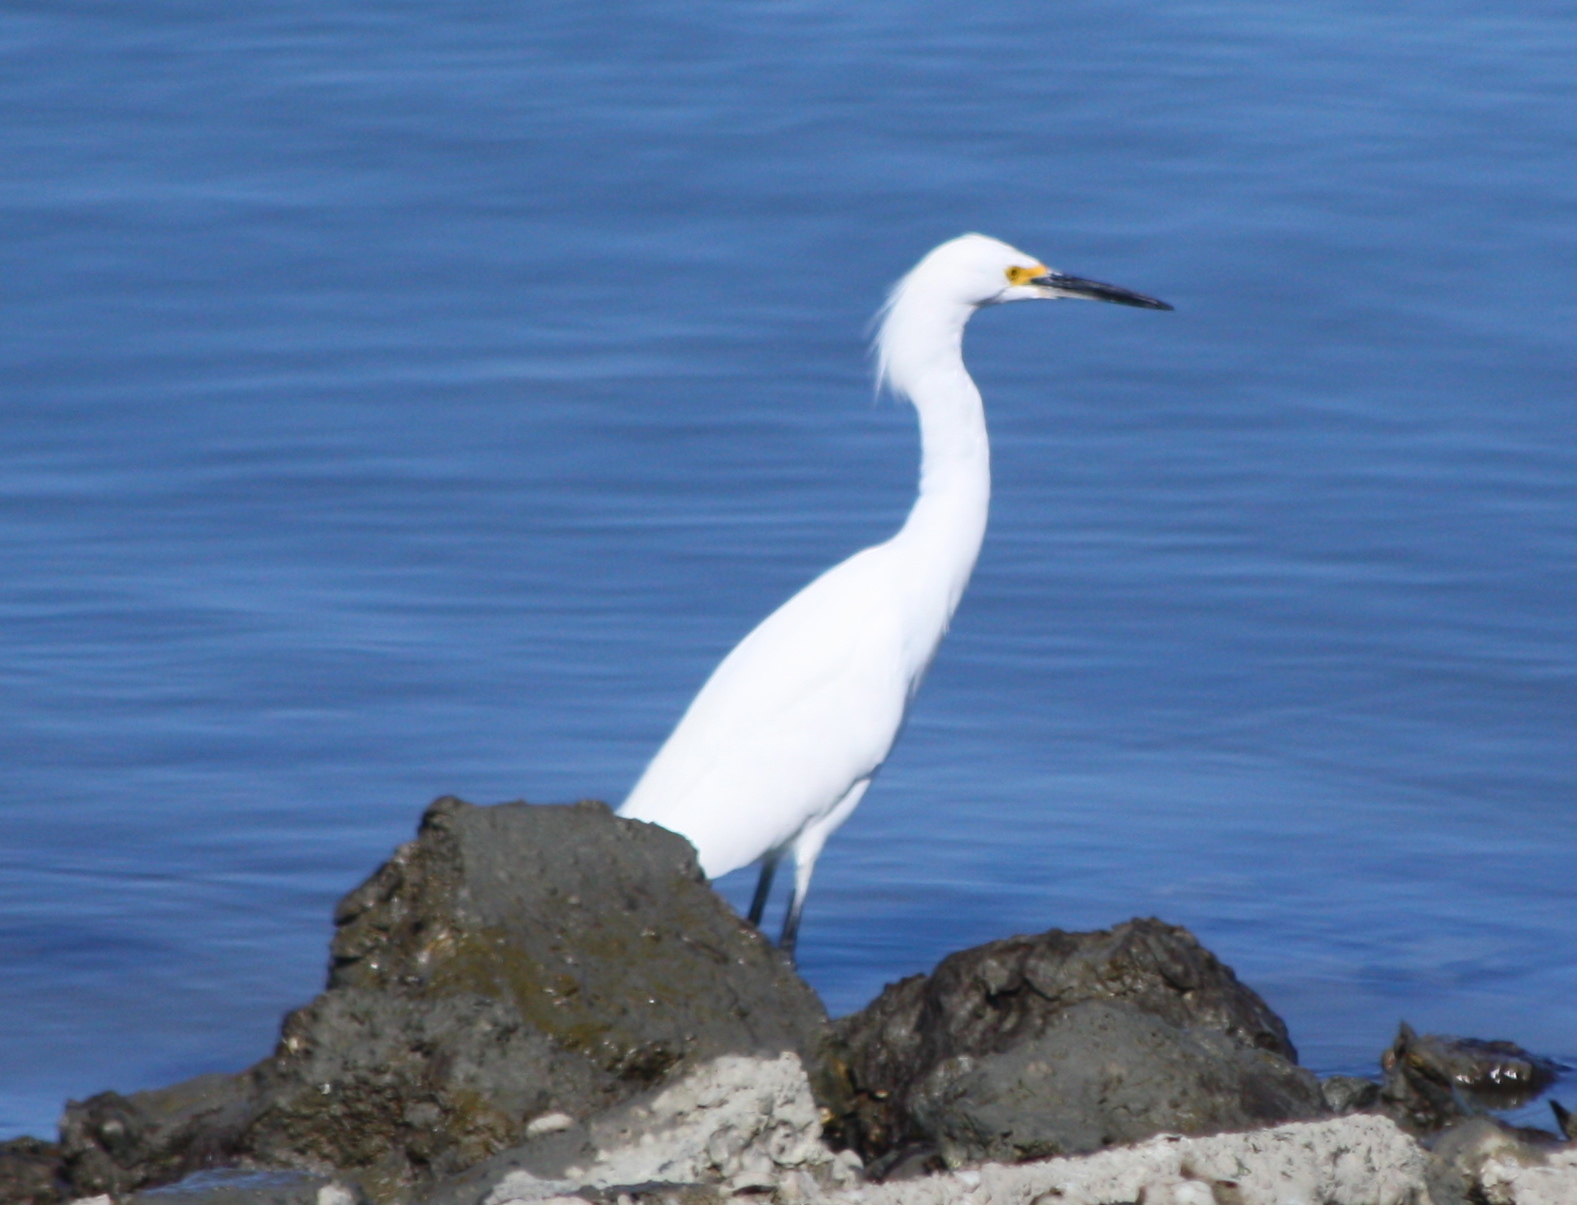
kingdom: Animalia
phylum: Chordata
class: Aves
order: Pelecaniformes
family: Ardeidae
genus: Egretta
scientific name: Egretta thula
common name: Snowy egret
